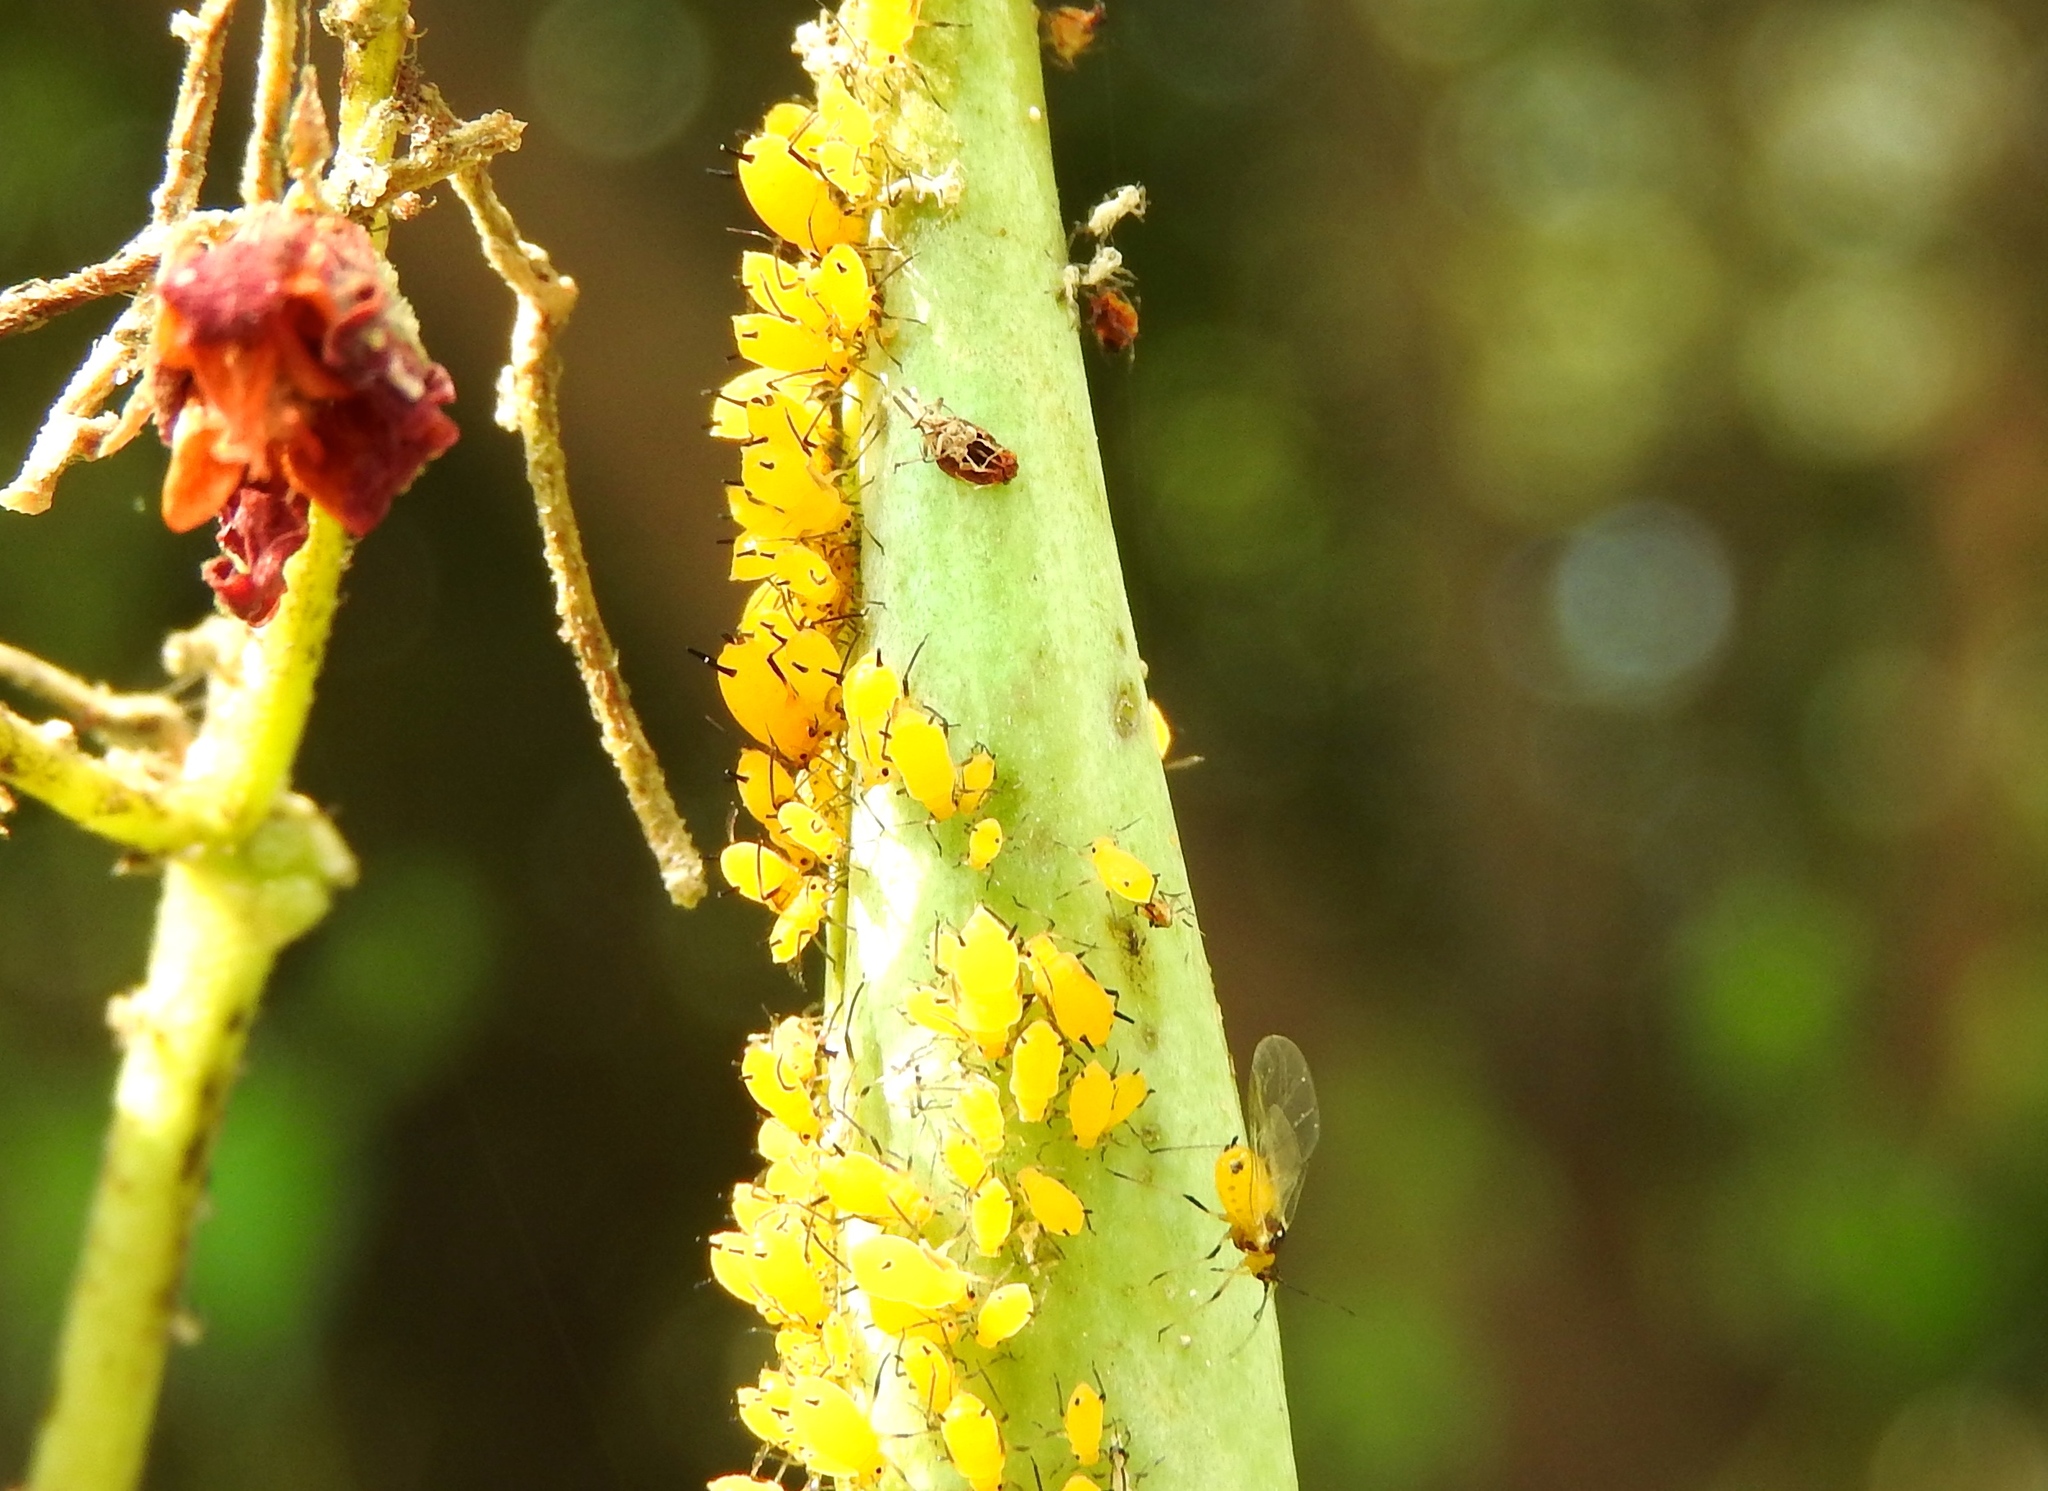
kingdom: Animalia
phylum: Arthropoda
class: Insecta
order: Hemiptera
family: Aphididae
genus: Aphis
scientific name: Aphis nerii
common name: Oleander aphid
